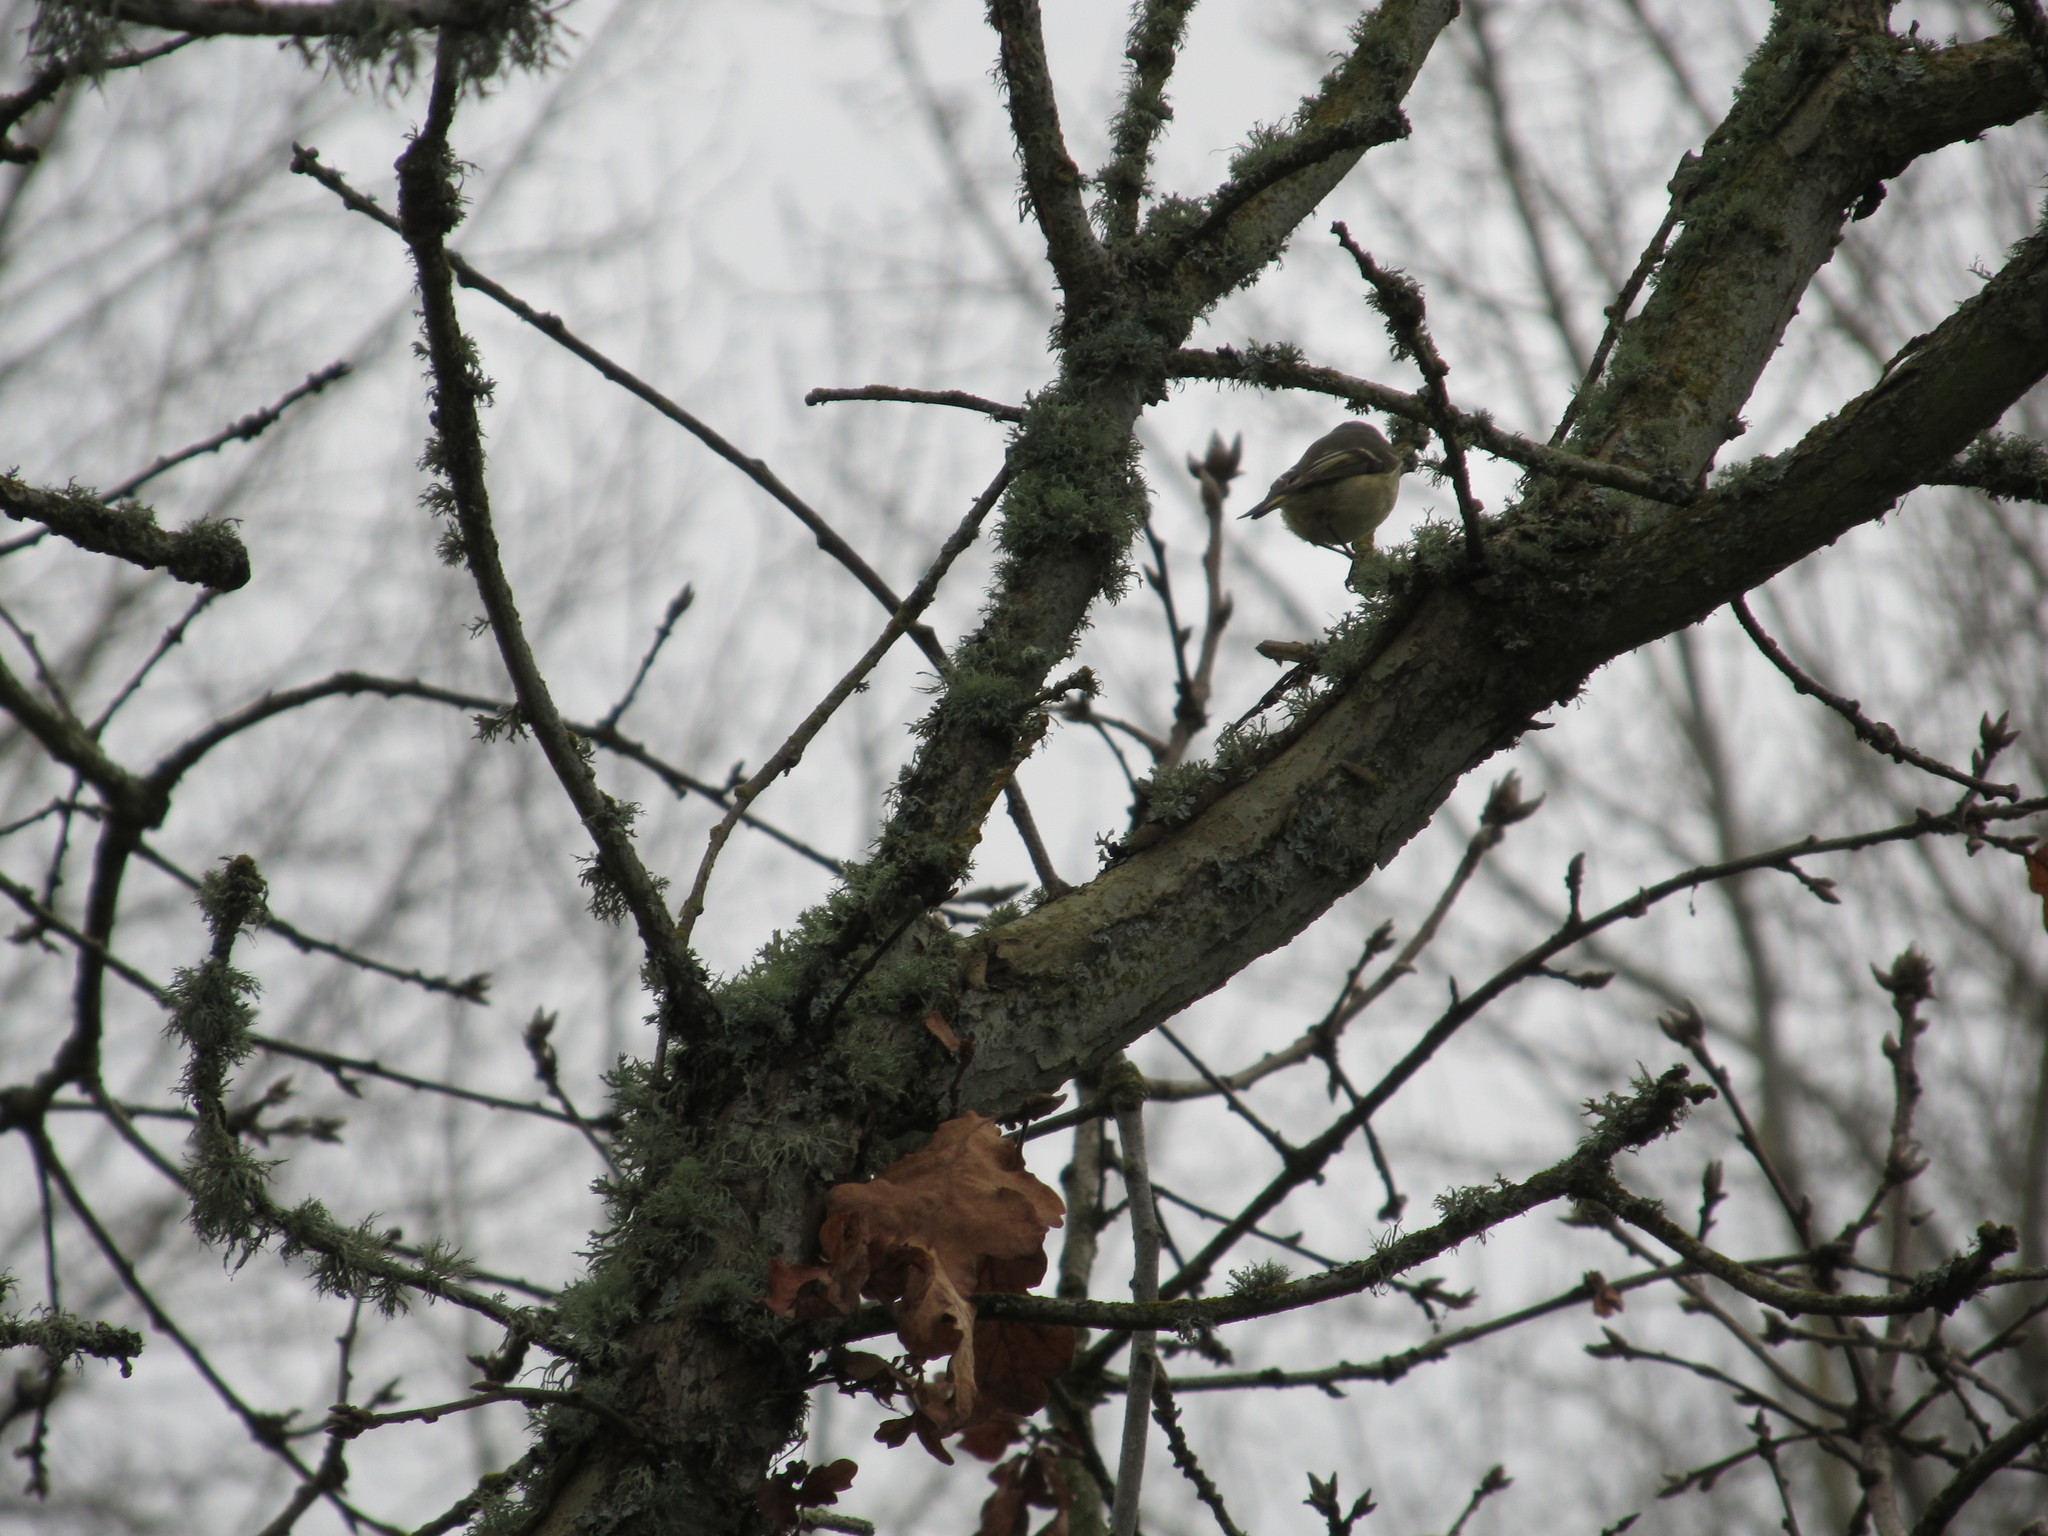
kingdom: Animalia
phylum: Chordata
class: Aves
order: Passeriformes
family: Regulidae
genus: Regulus
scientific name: Regulus calendula
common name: Ruby-crowned kinglet
